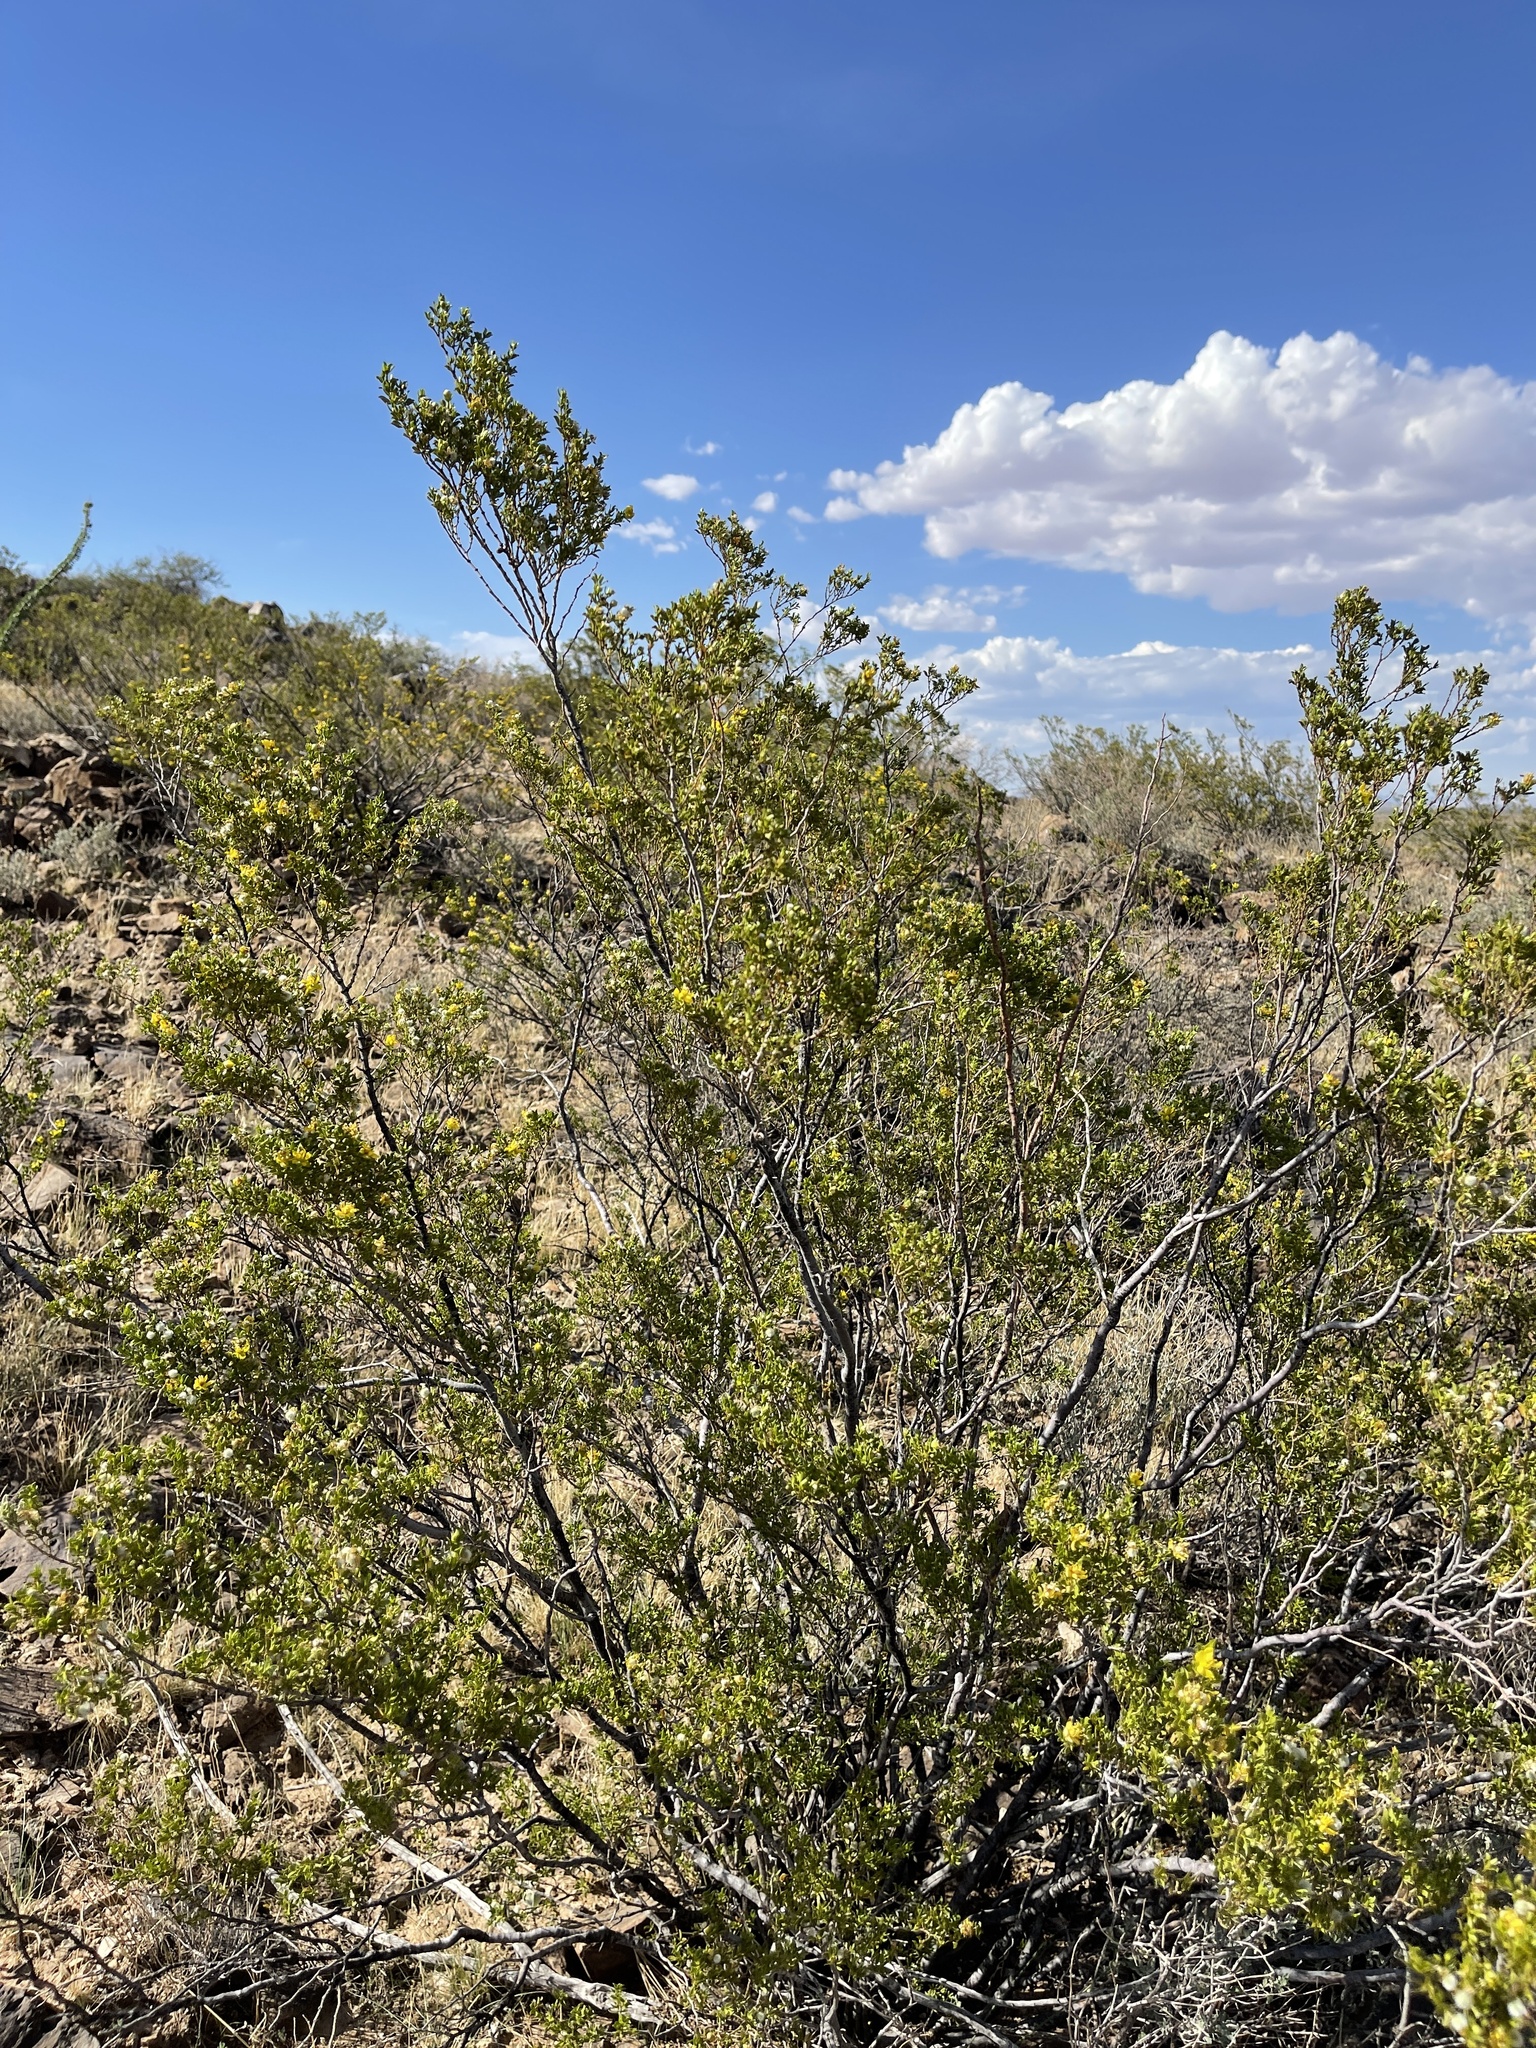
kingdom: Plantae
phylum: Tracheophyta
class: Magnoliopsida
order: Zygophyllales
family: Zygophyllaceae
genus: Larrea
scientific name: Larrea tridentata
